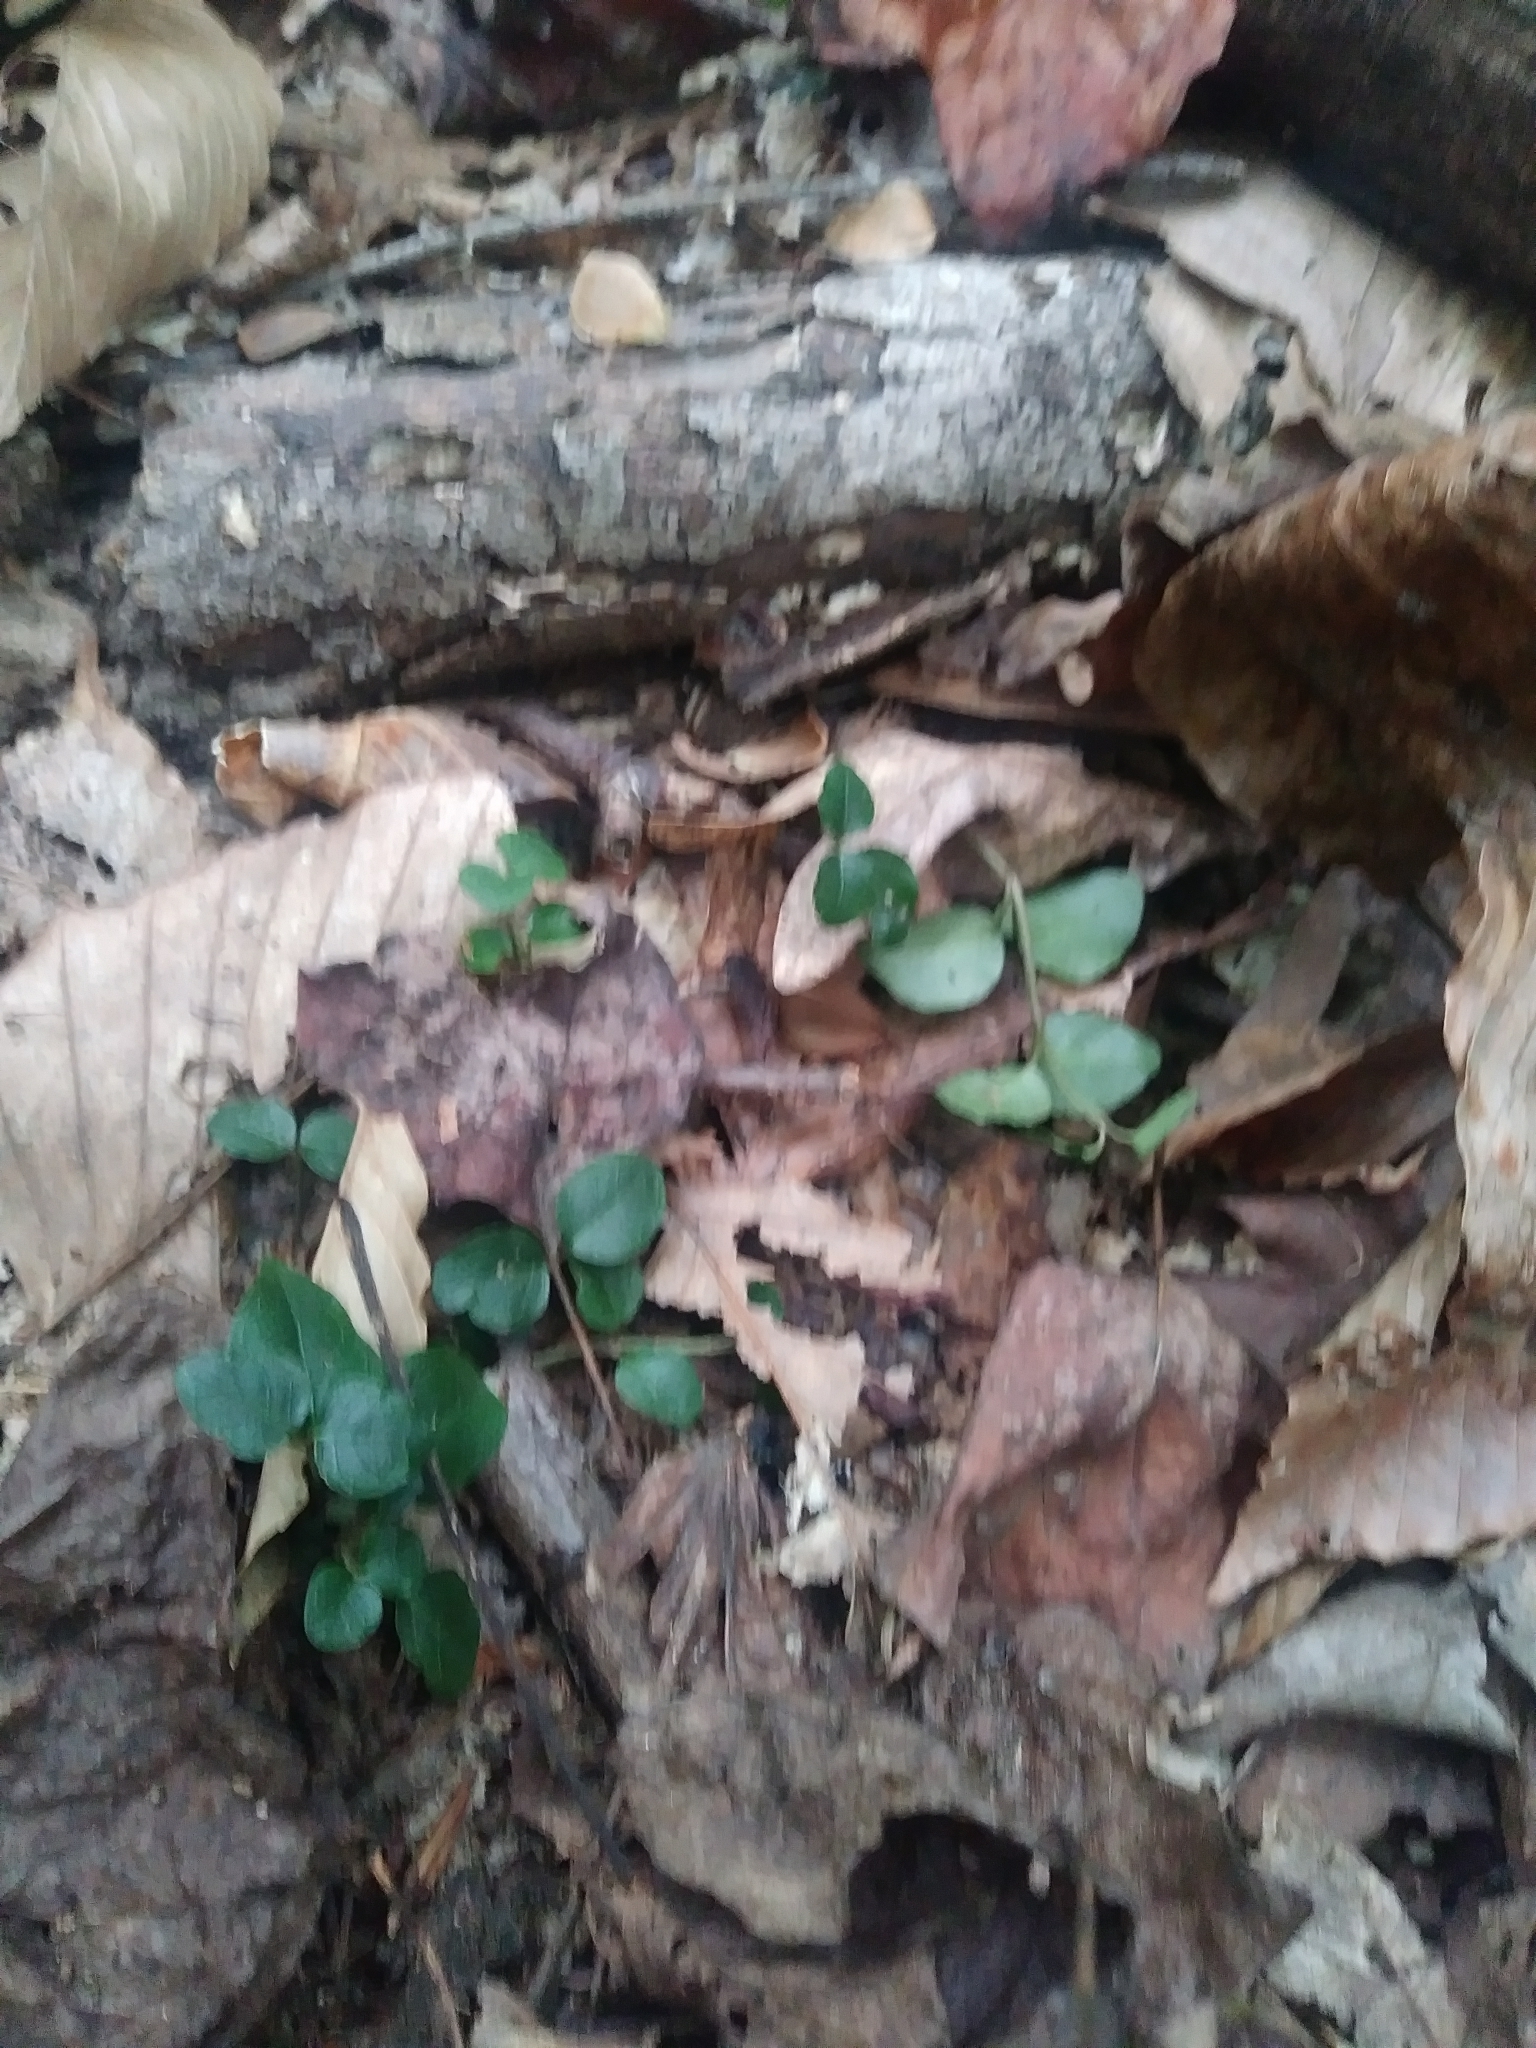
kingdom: Plantae
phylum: Tracheophyta
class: Magnoliopsida
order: Gentianales
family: Rubiaceae
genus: Mitchella
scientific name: Mitchella repens
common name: Partridge-berry
